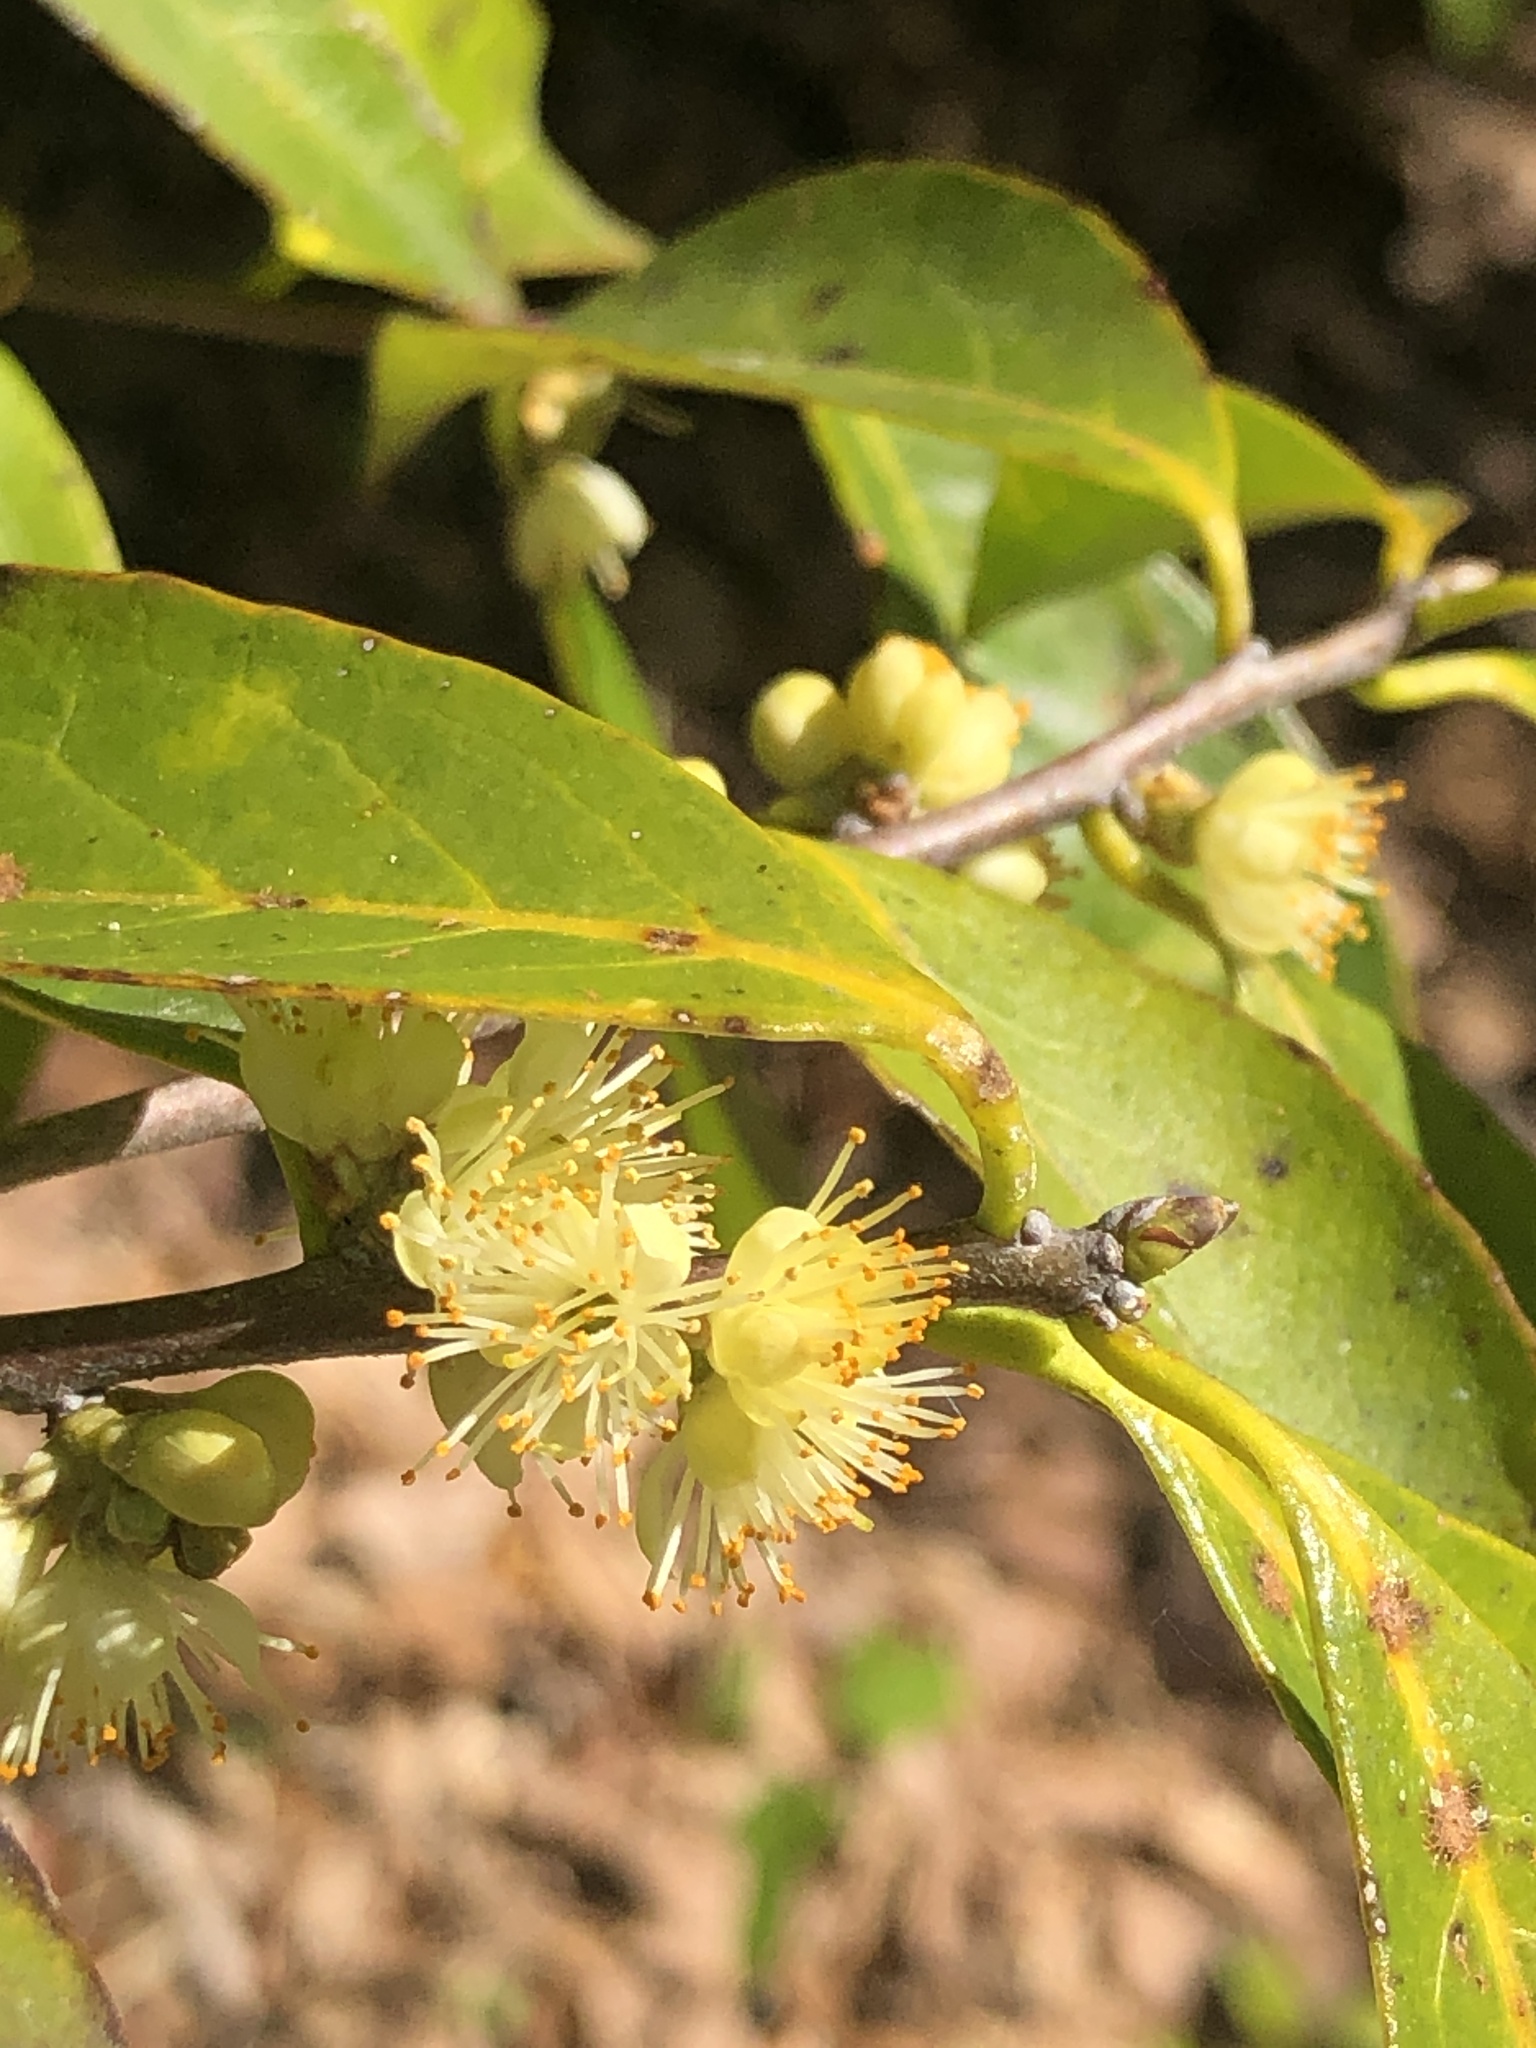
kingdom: Plantae
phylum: Tracheophyta
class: Magnoliopsida
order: Ericales
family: Symplocaceae
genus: Symplocos
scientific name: Symplocos tinctoria
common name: Horse-sugar
